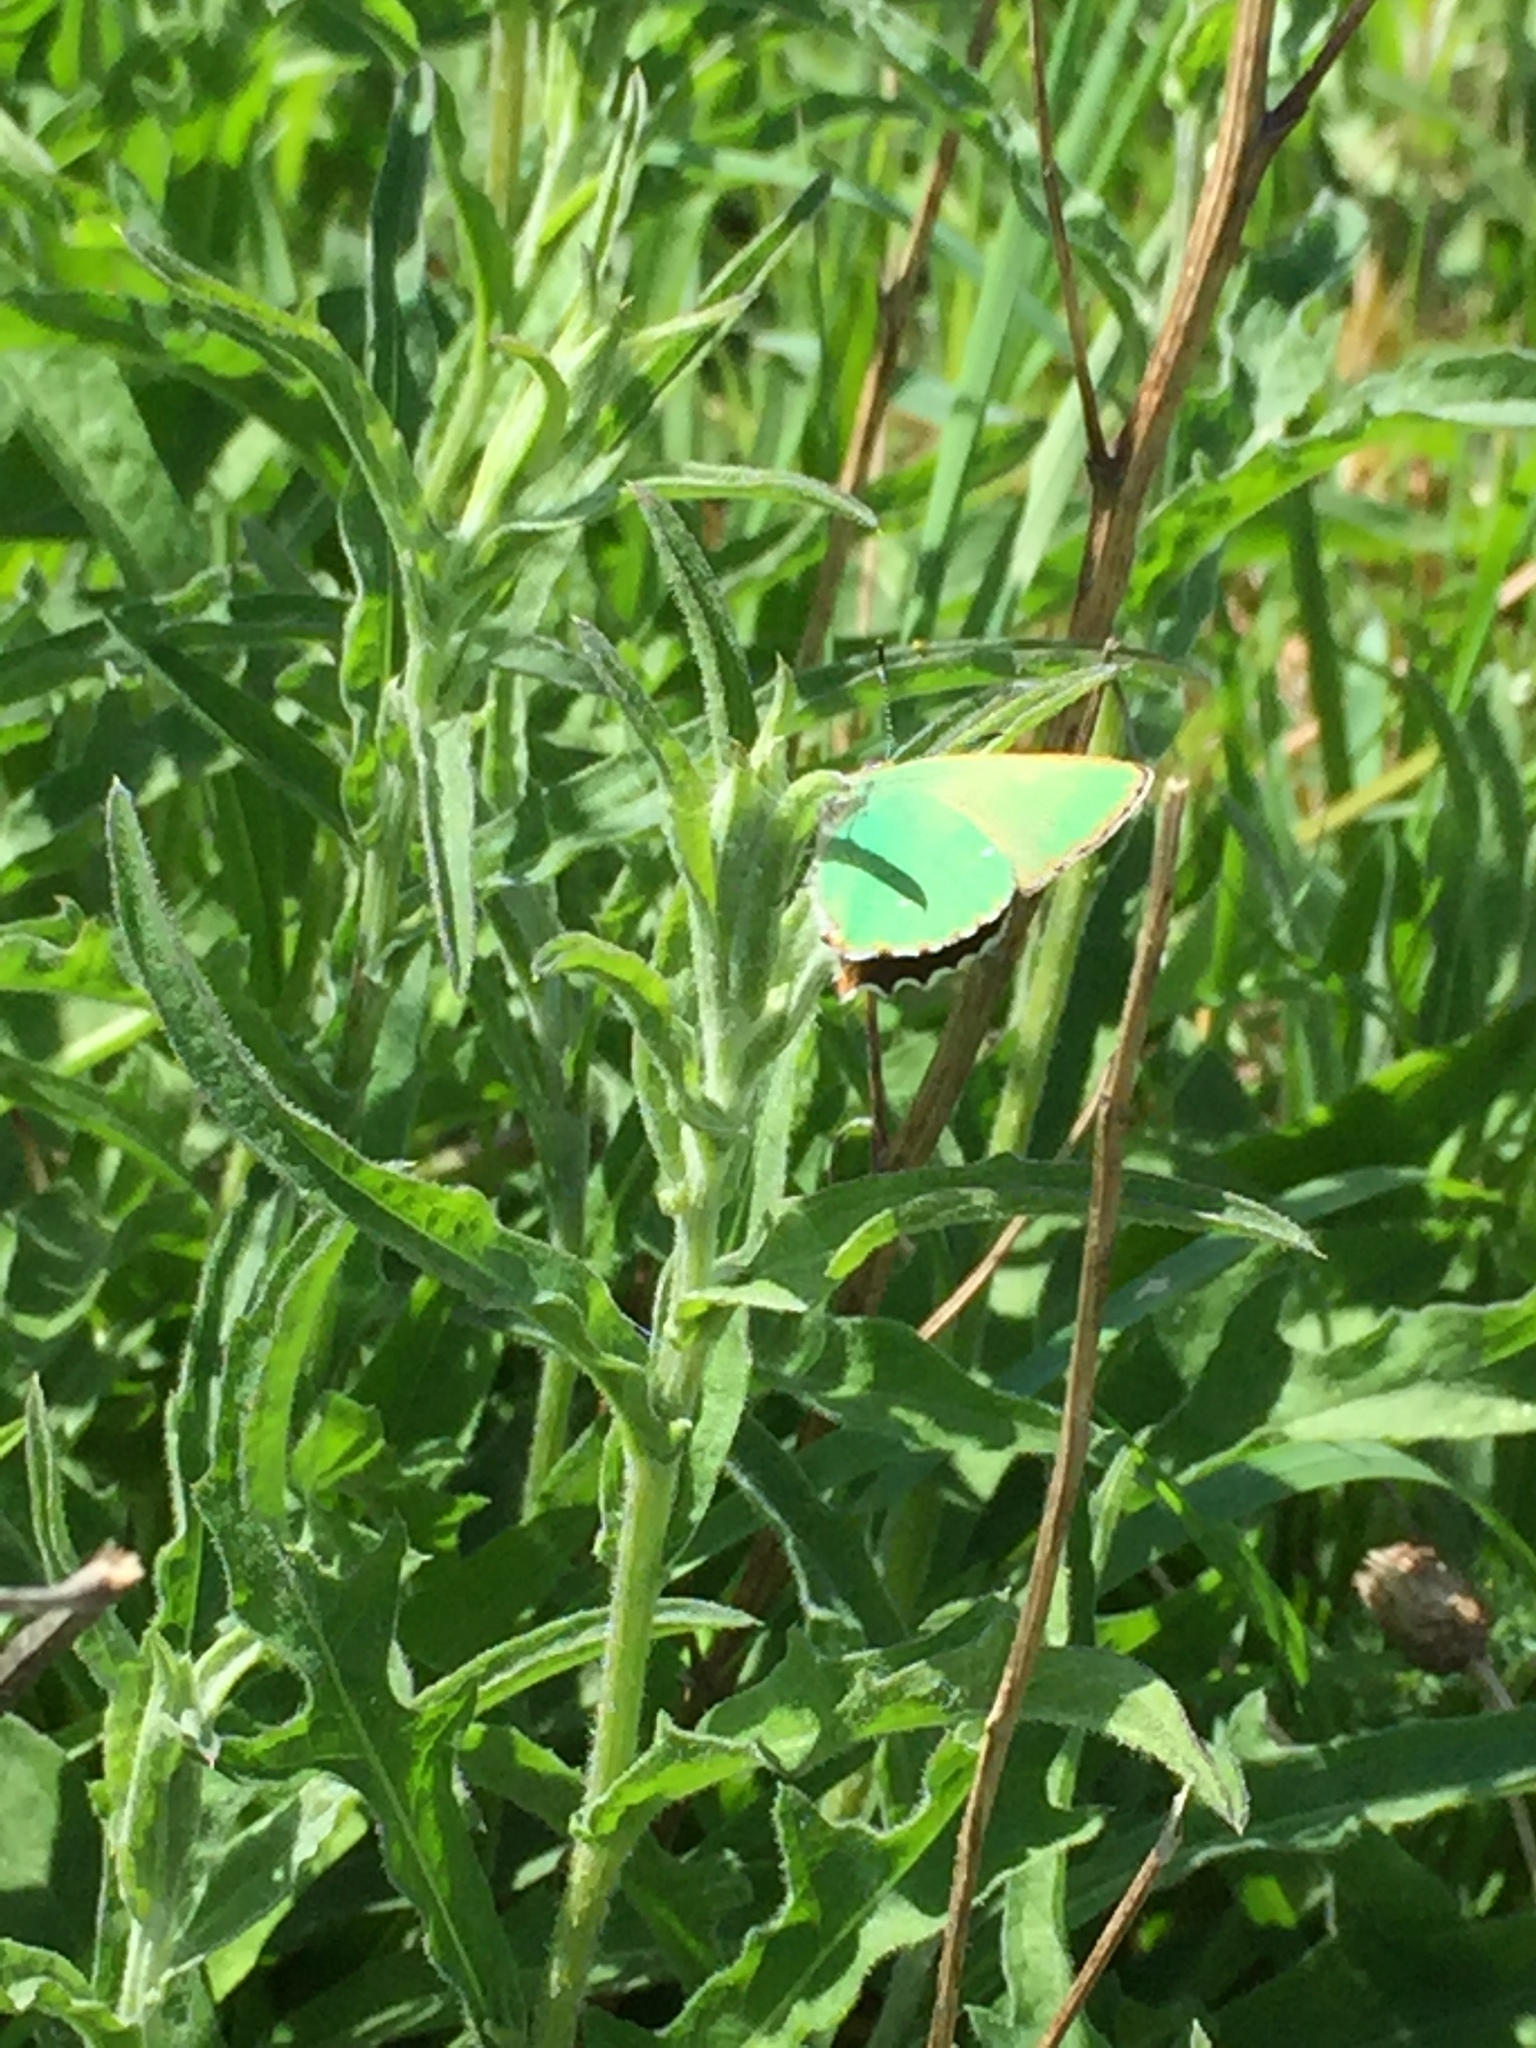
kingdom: Animalia
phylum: Arthropoda
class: Insecta
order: Lepidoptera
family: Lycaenidae
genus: Callophrys
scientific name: Callophrys rubi
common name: Green hairstreak
